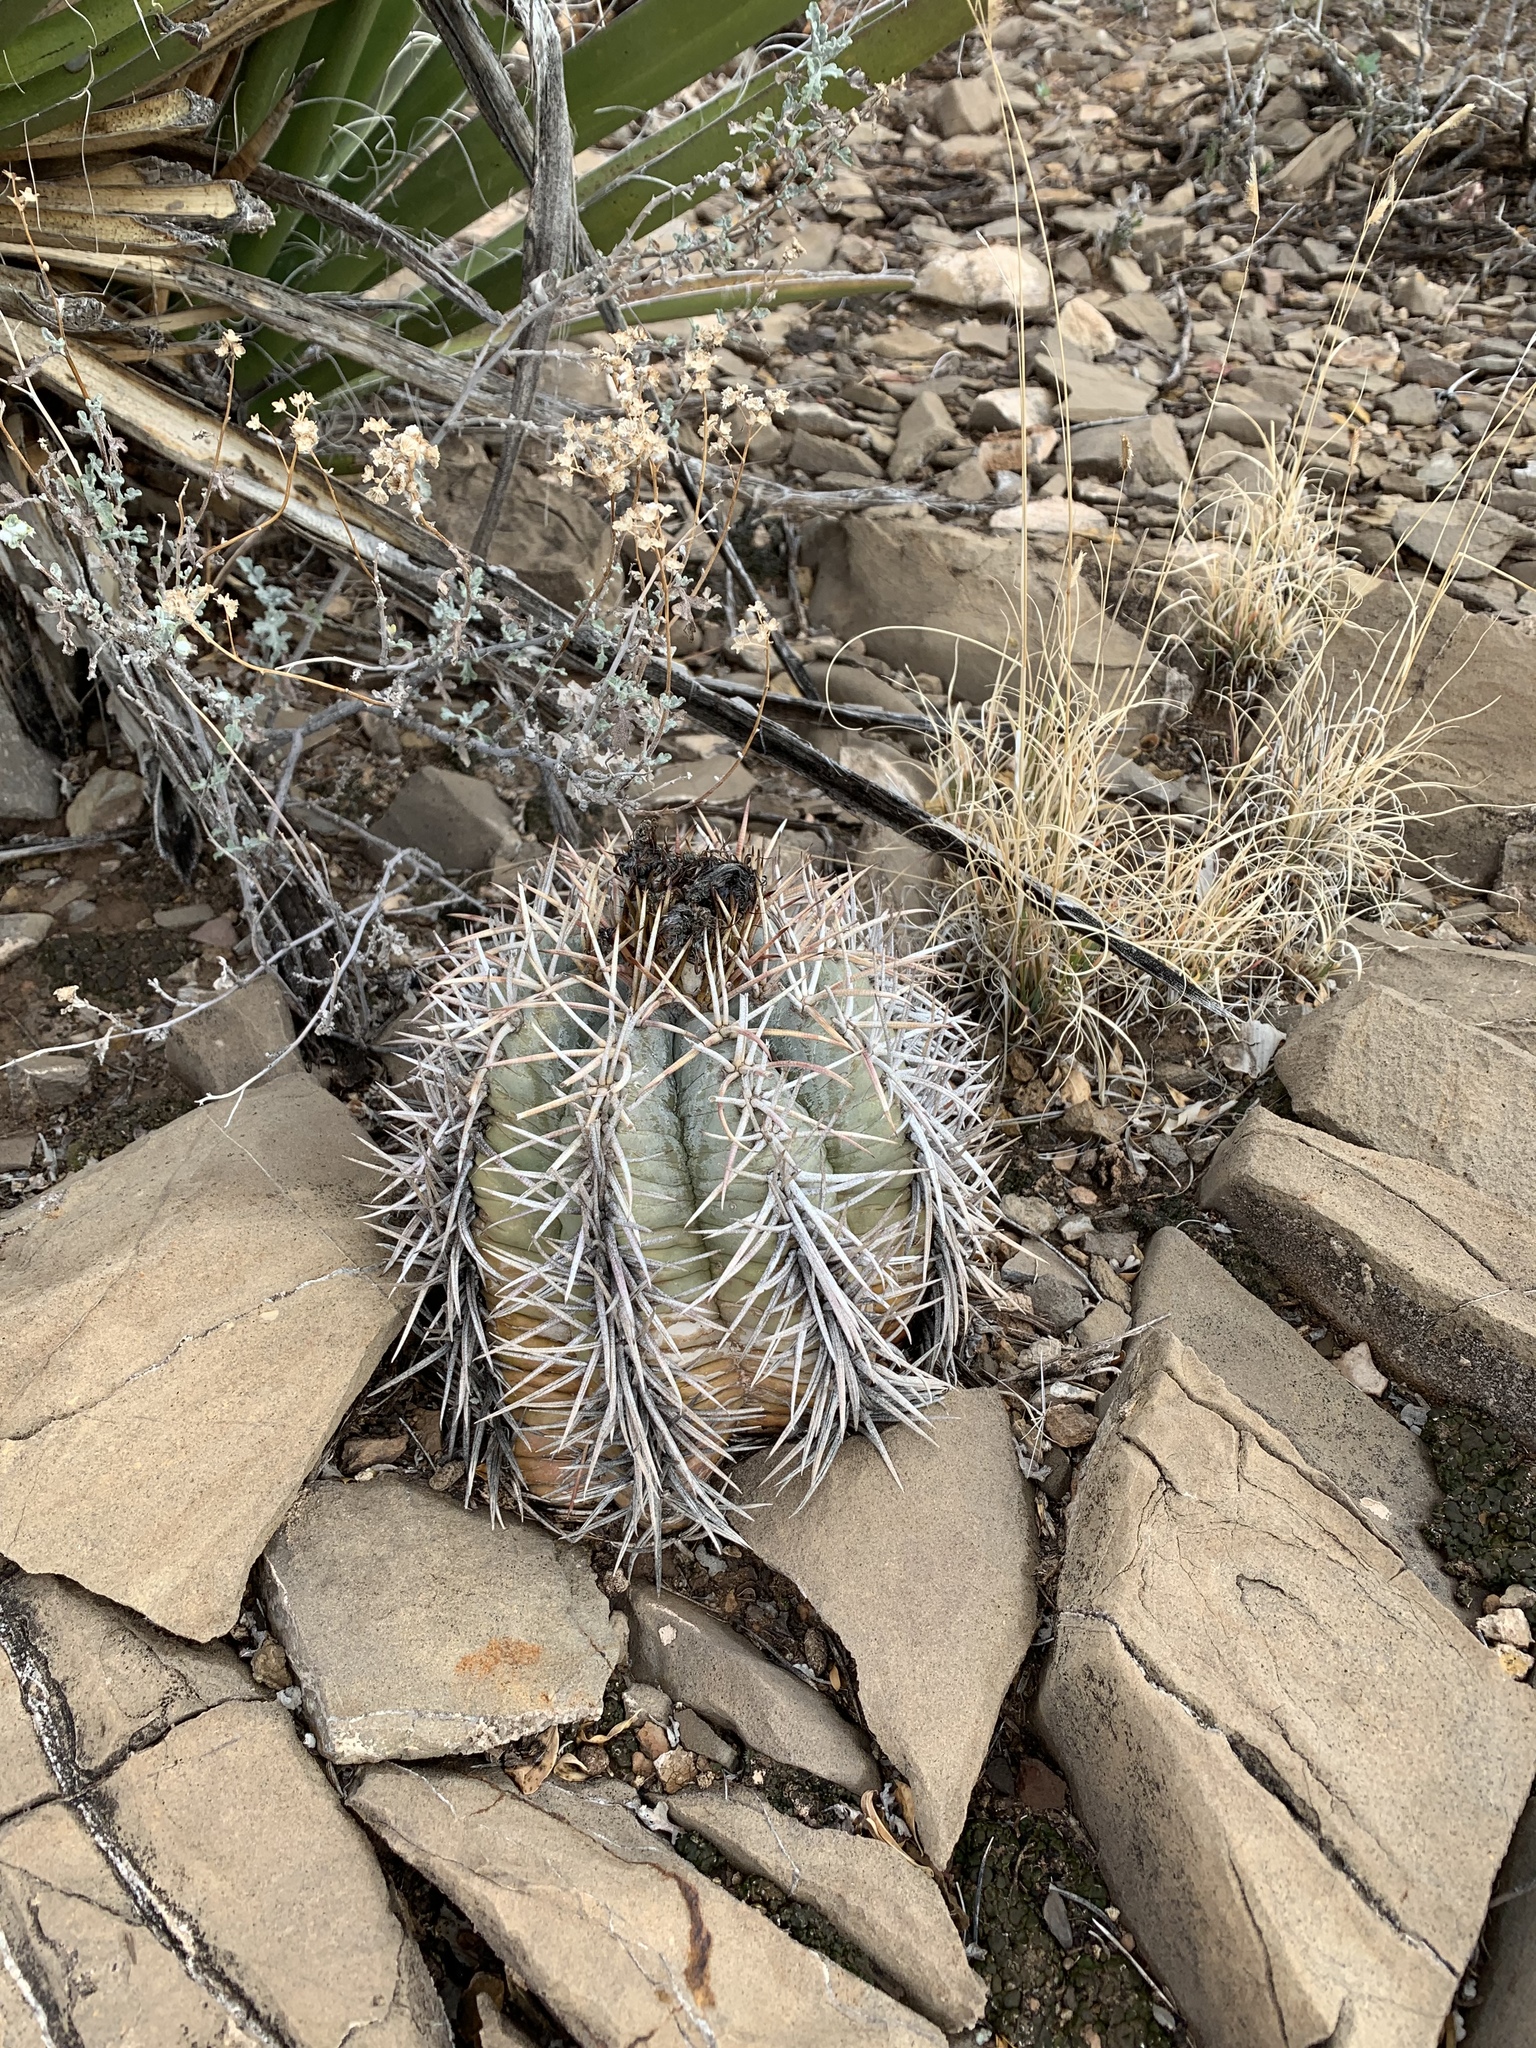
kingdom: Plantae
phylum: Tracheophyta
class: Magnoliopsida
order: Caryophyllales
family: Cactaceae
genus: Echinocactus
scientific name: Echinocactus horizonthalonius
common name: Devilshead
